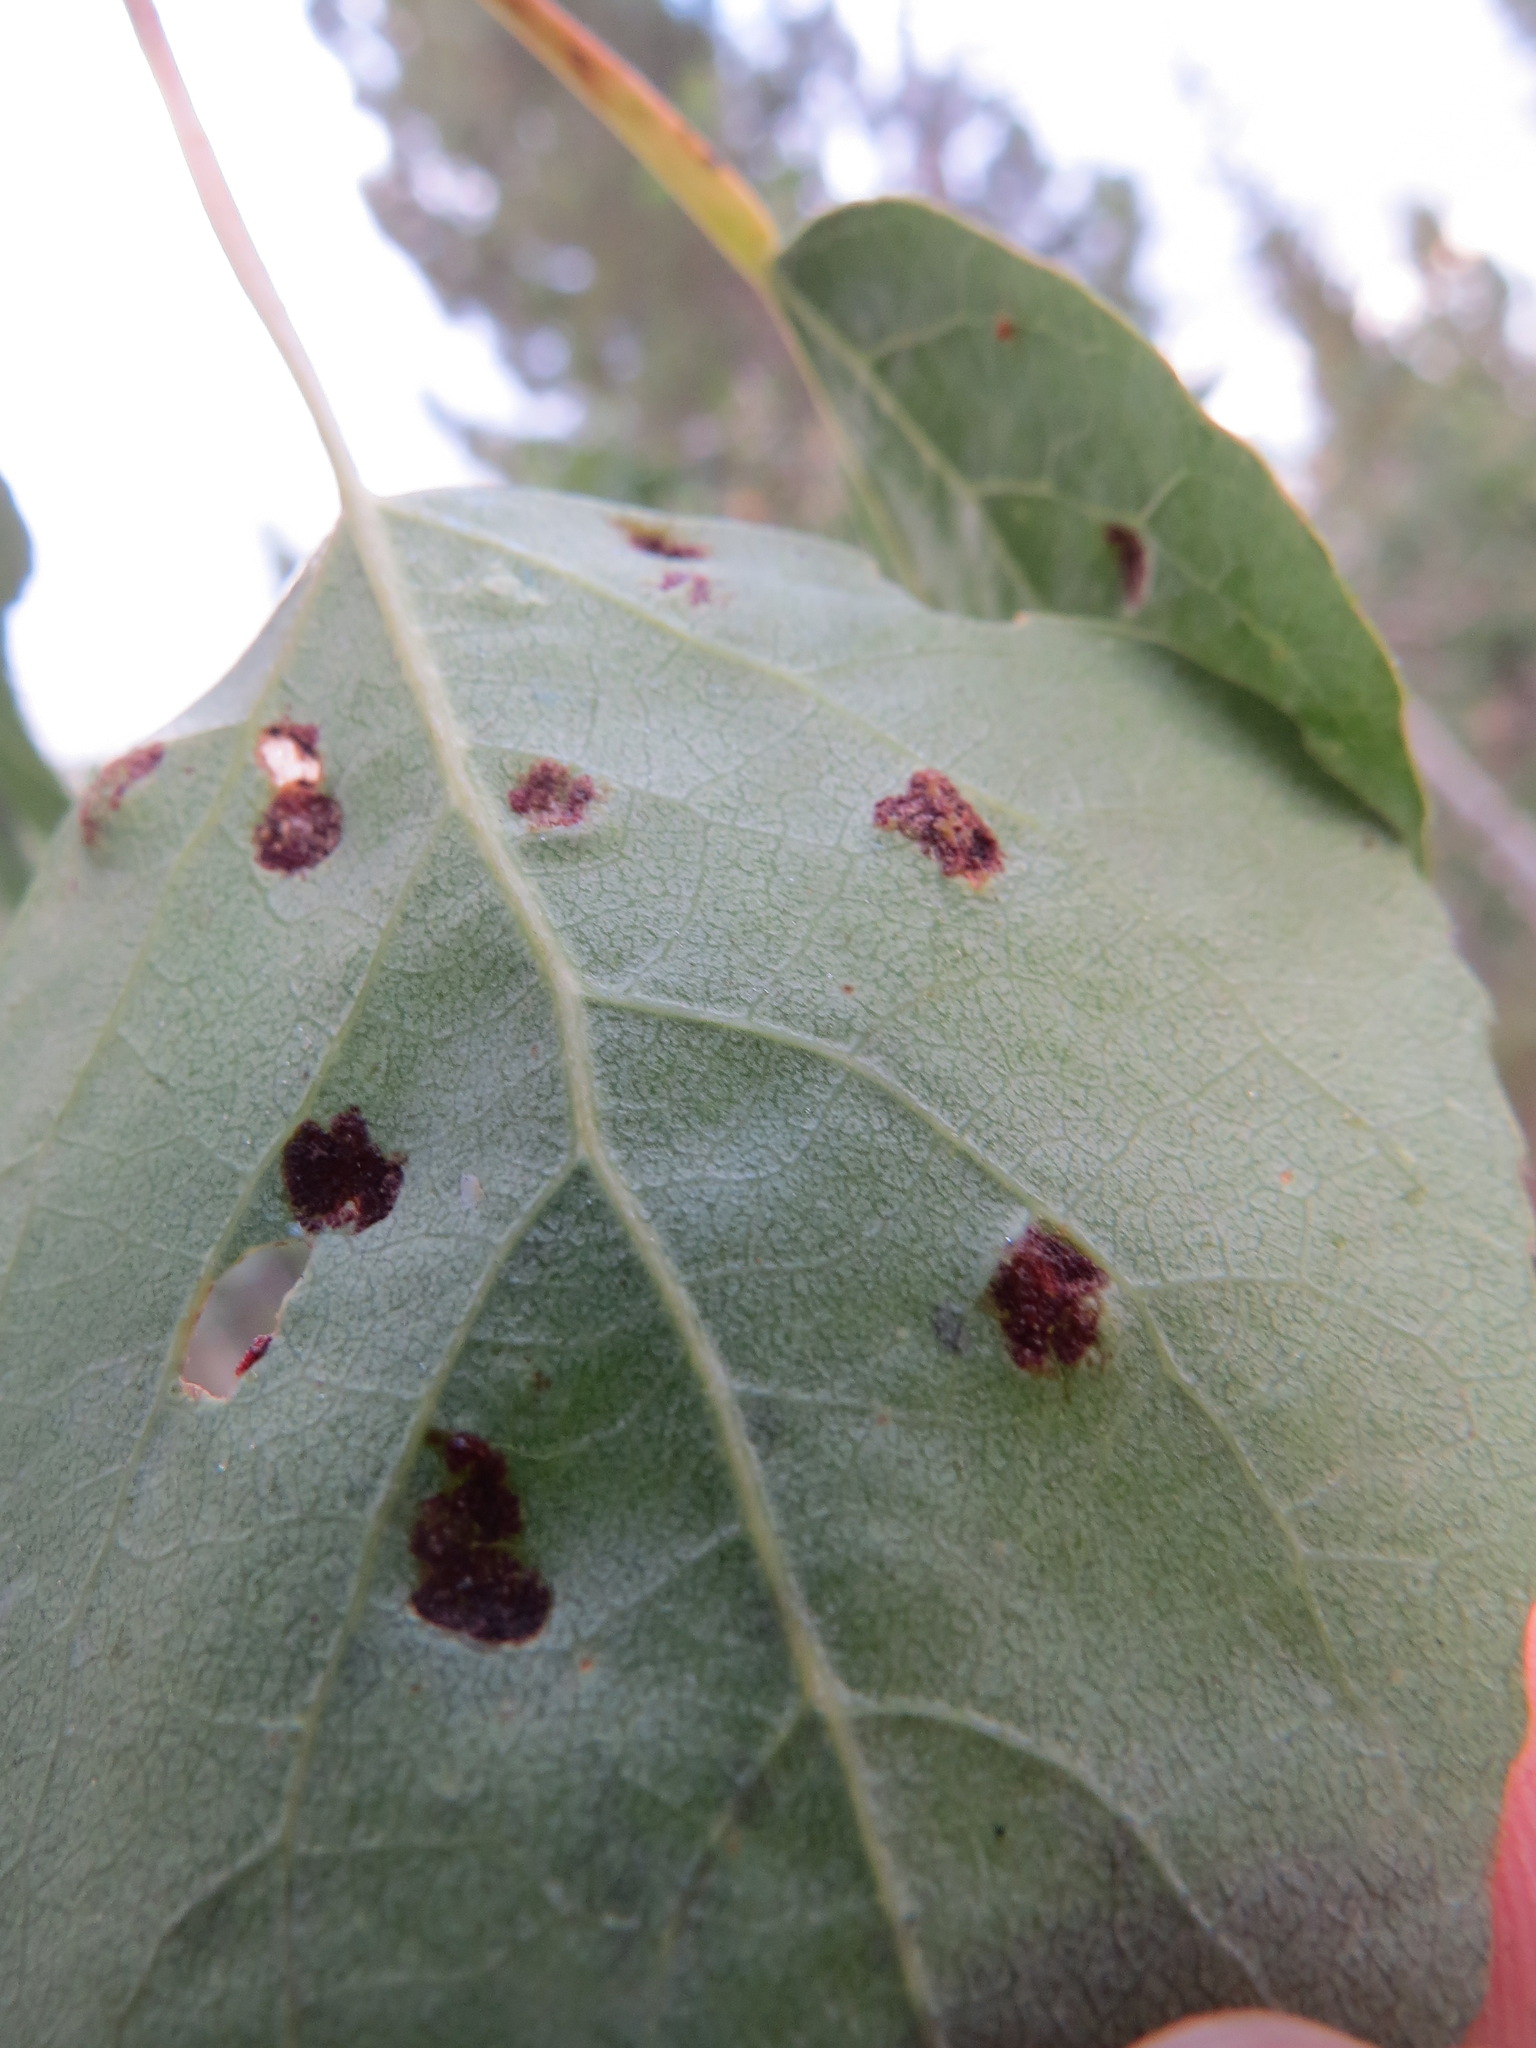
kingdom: Animalia
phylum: Arthropoda
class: Arachnida
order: Trombidiformes
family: Eriophyidae
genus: Phyllocoptes
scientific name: Phyllocoptes
